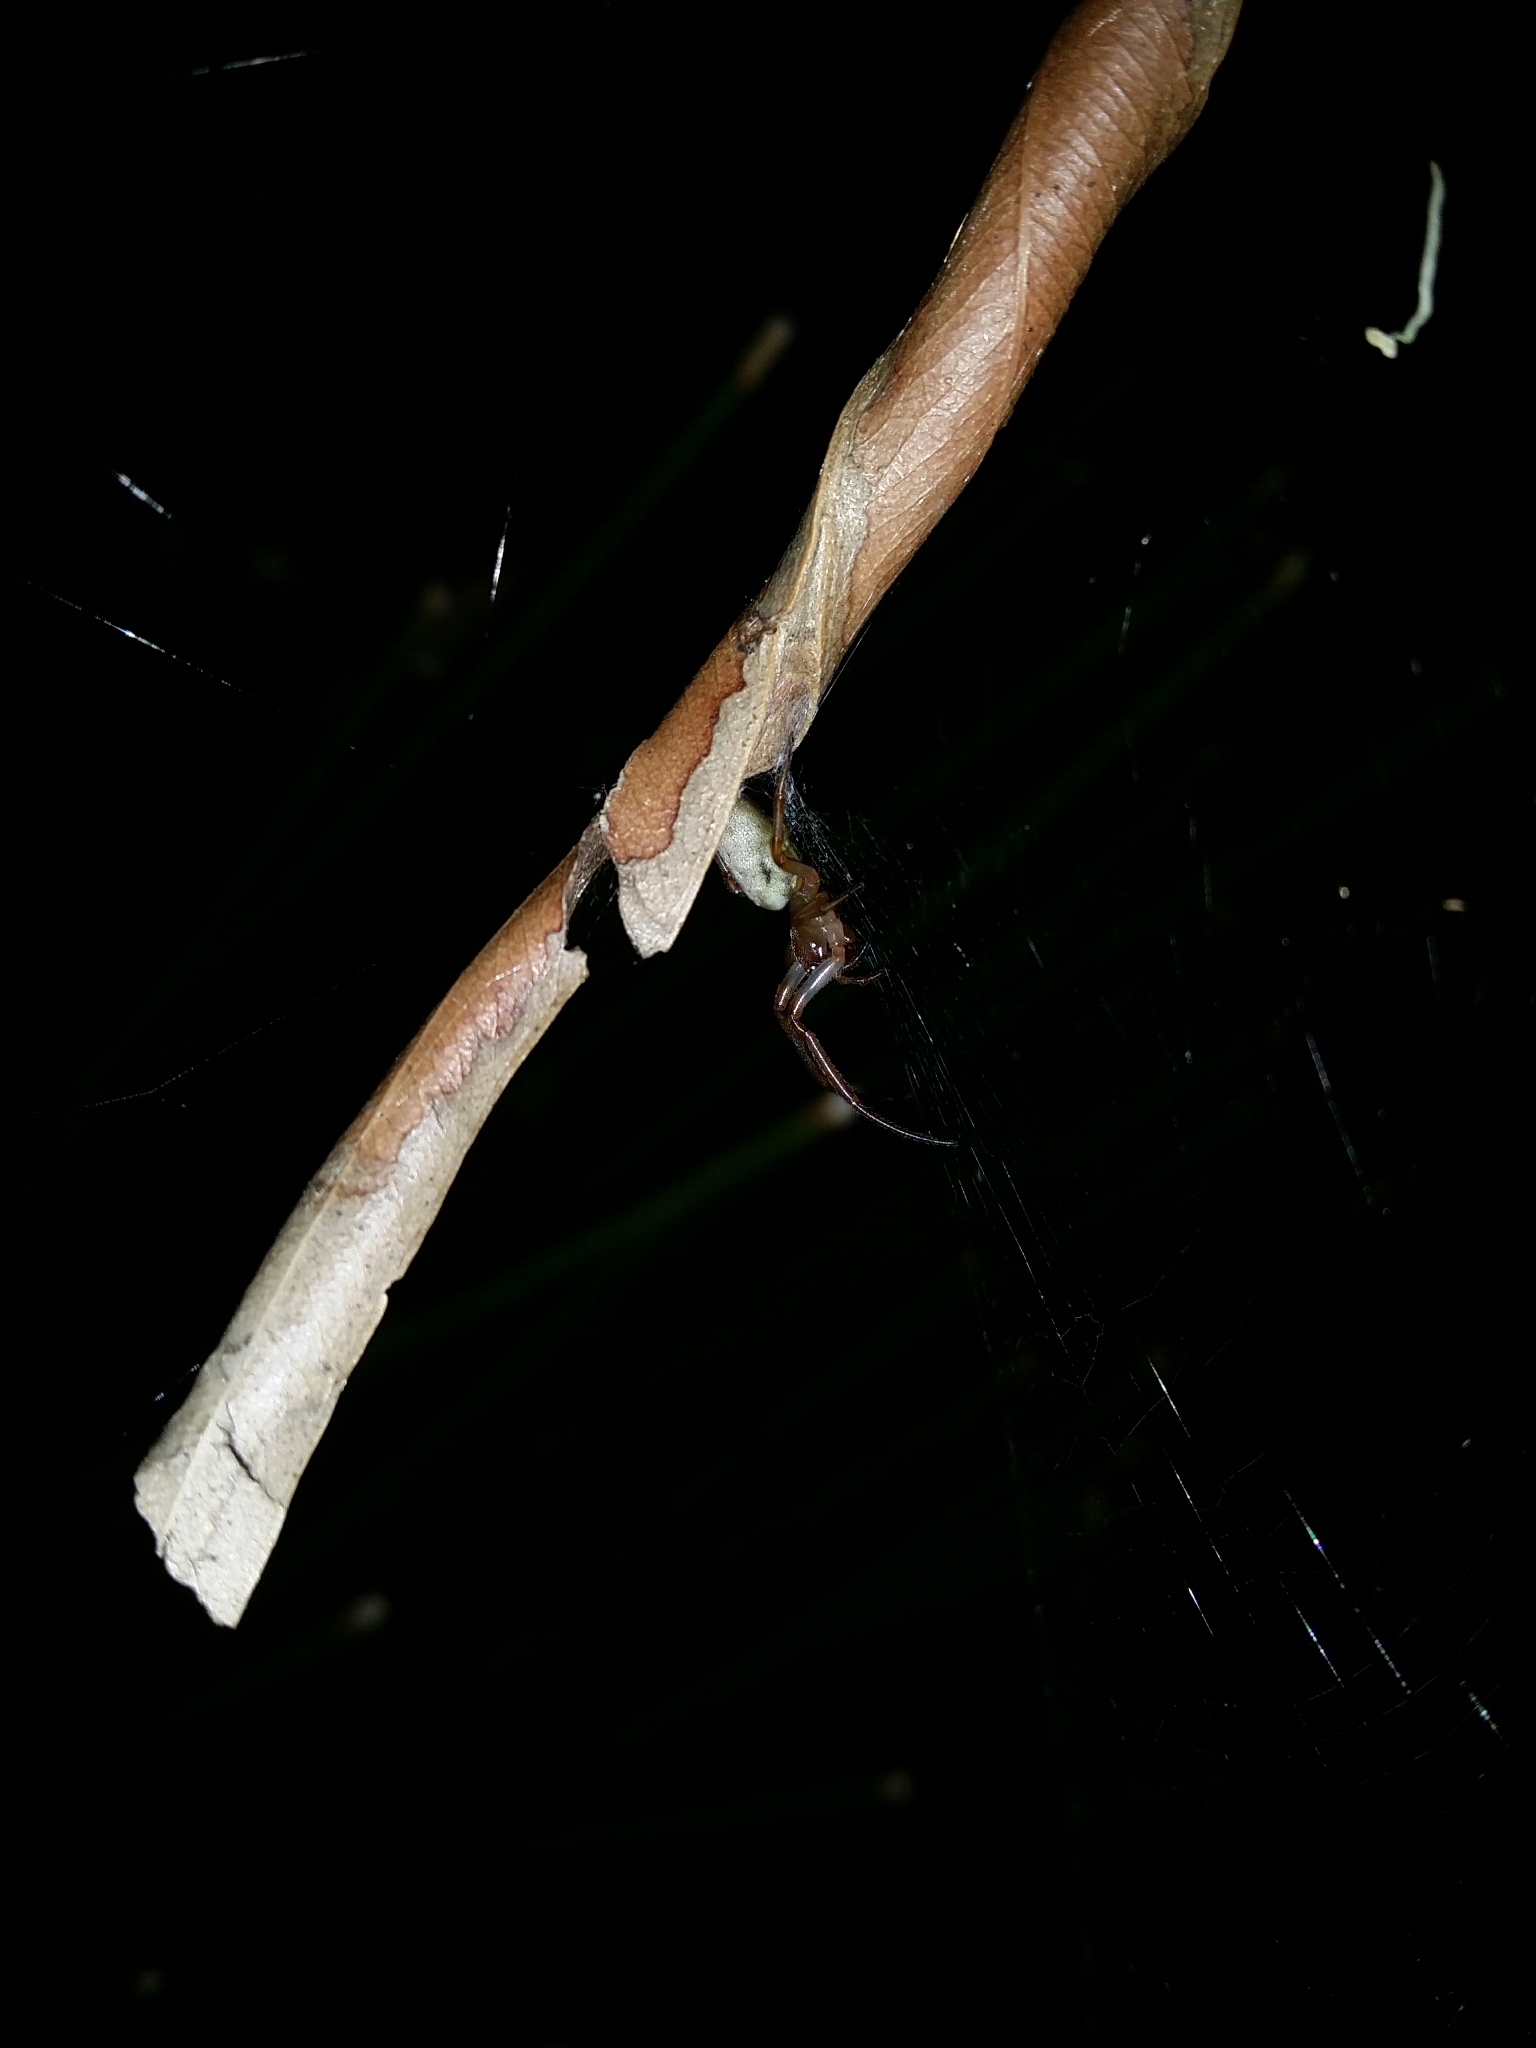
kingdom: Animalia
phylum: Arthropoda
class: Arachnida
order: Araneae
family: Araneidae
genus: Phonognatha
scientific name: Phonognatha graeffei
